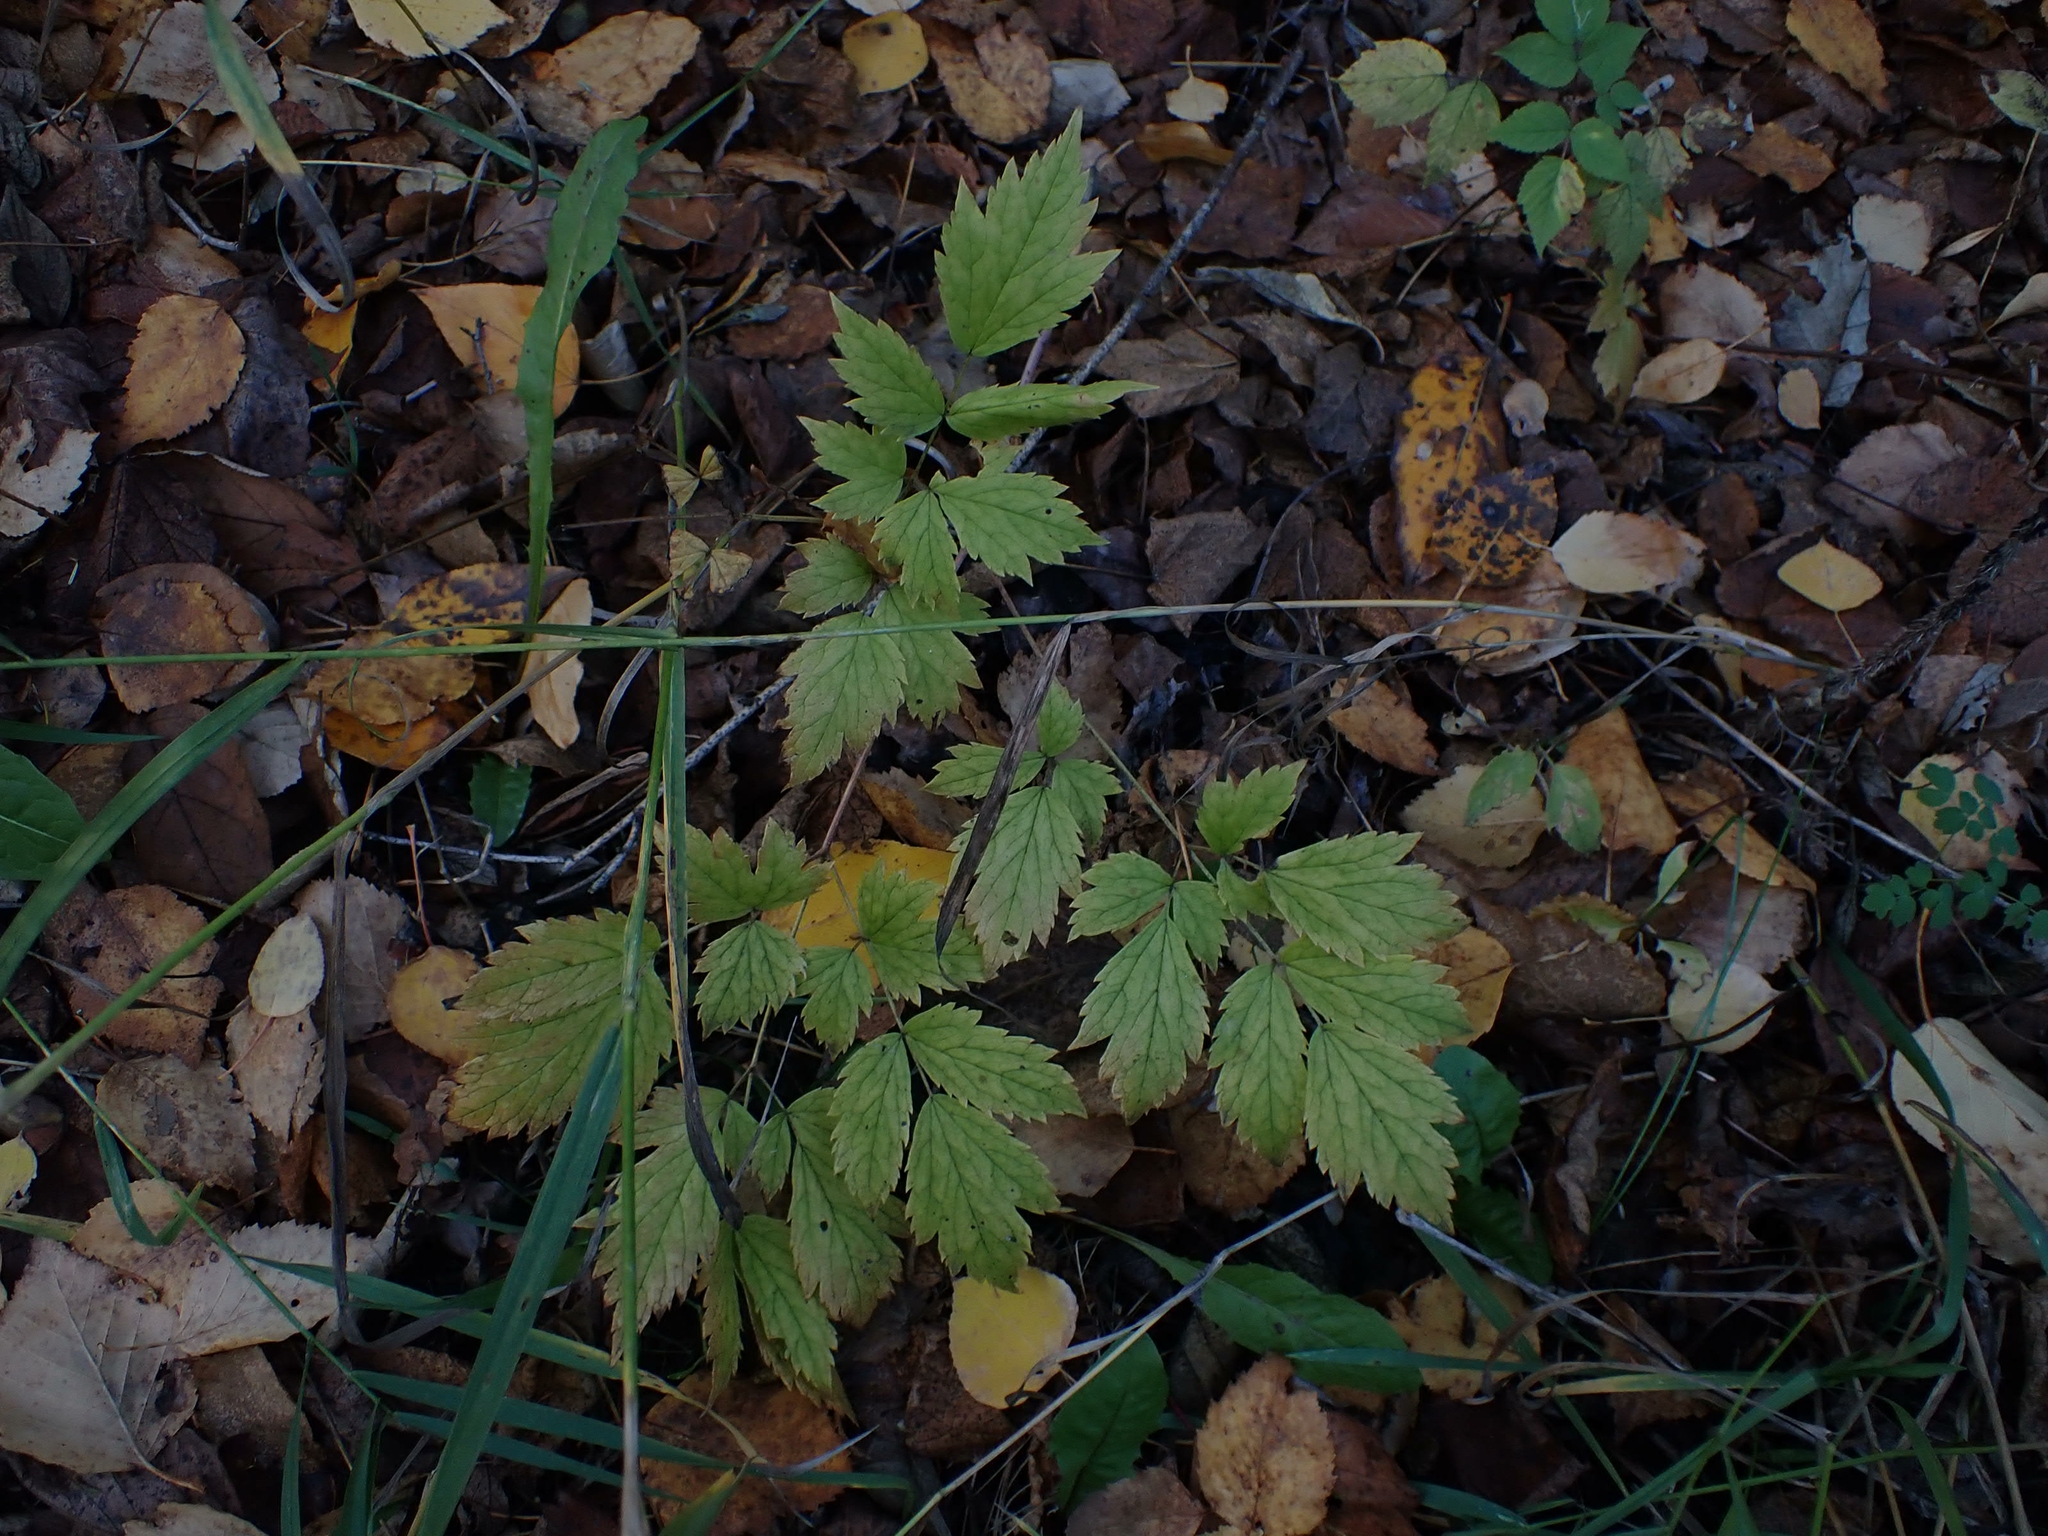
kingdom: Plantae
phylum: Tracheophyta
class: Magnoliopsida
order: Ranunculales
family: Ranunculaceae
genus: Actaea
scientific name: Actaea rubra
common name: Red baneberry
